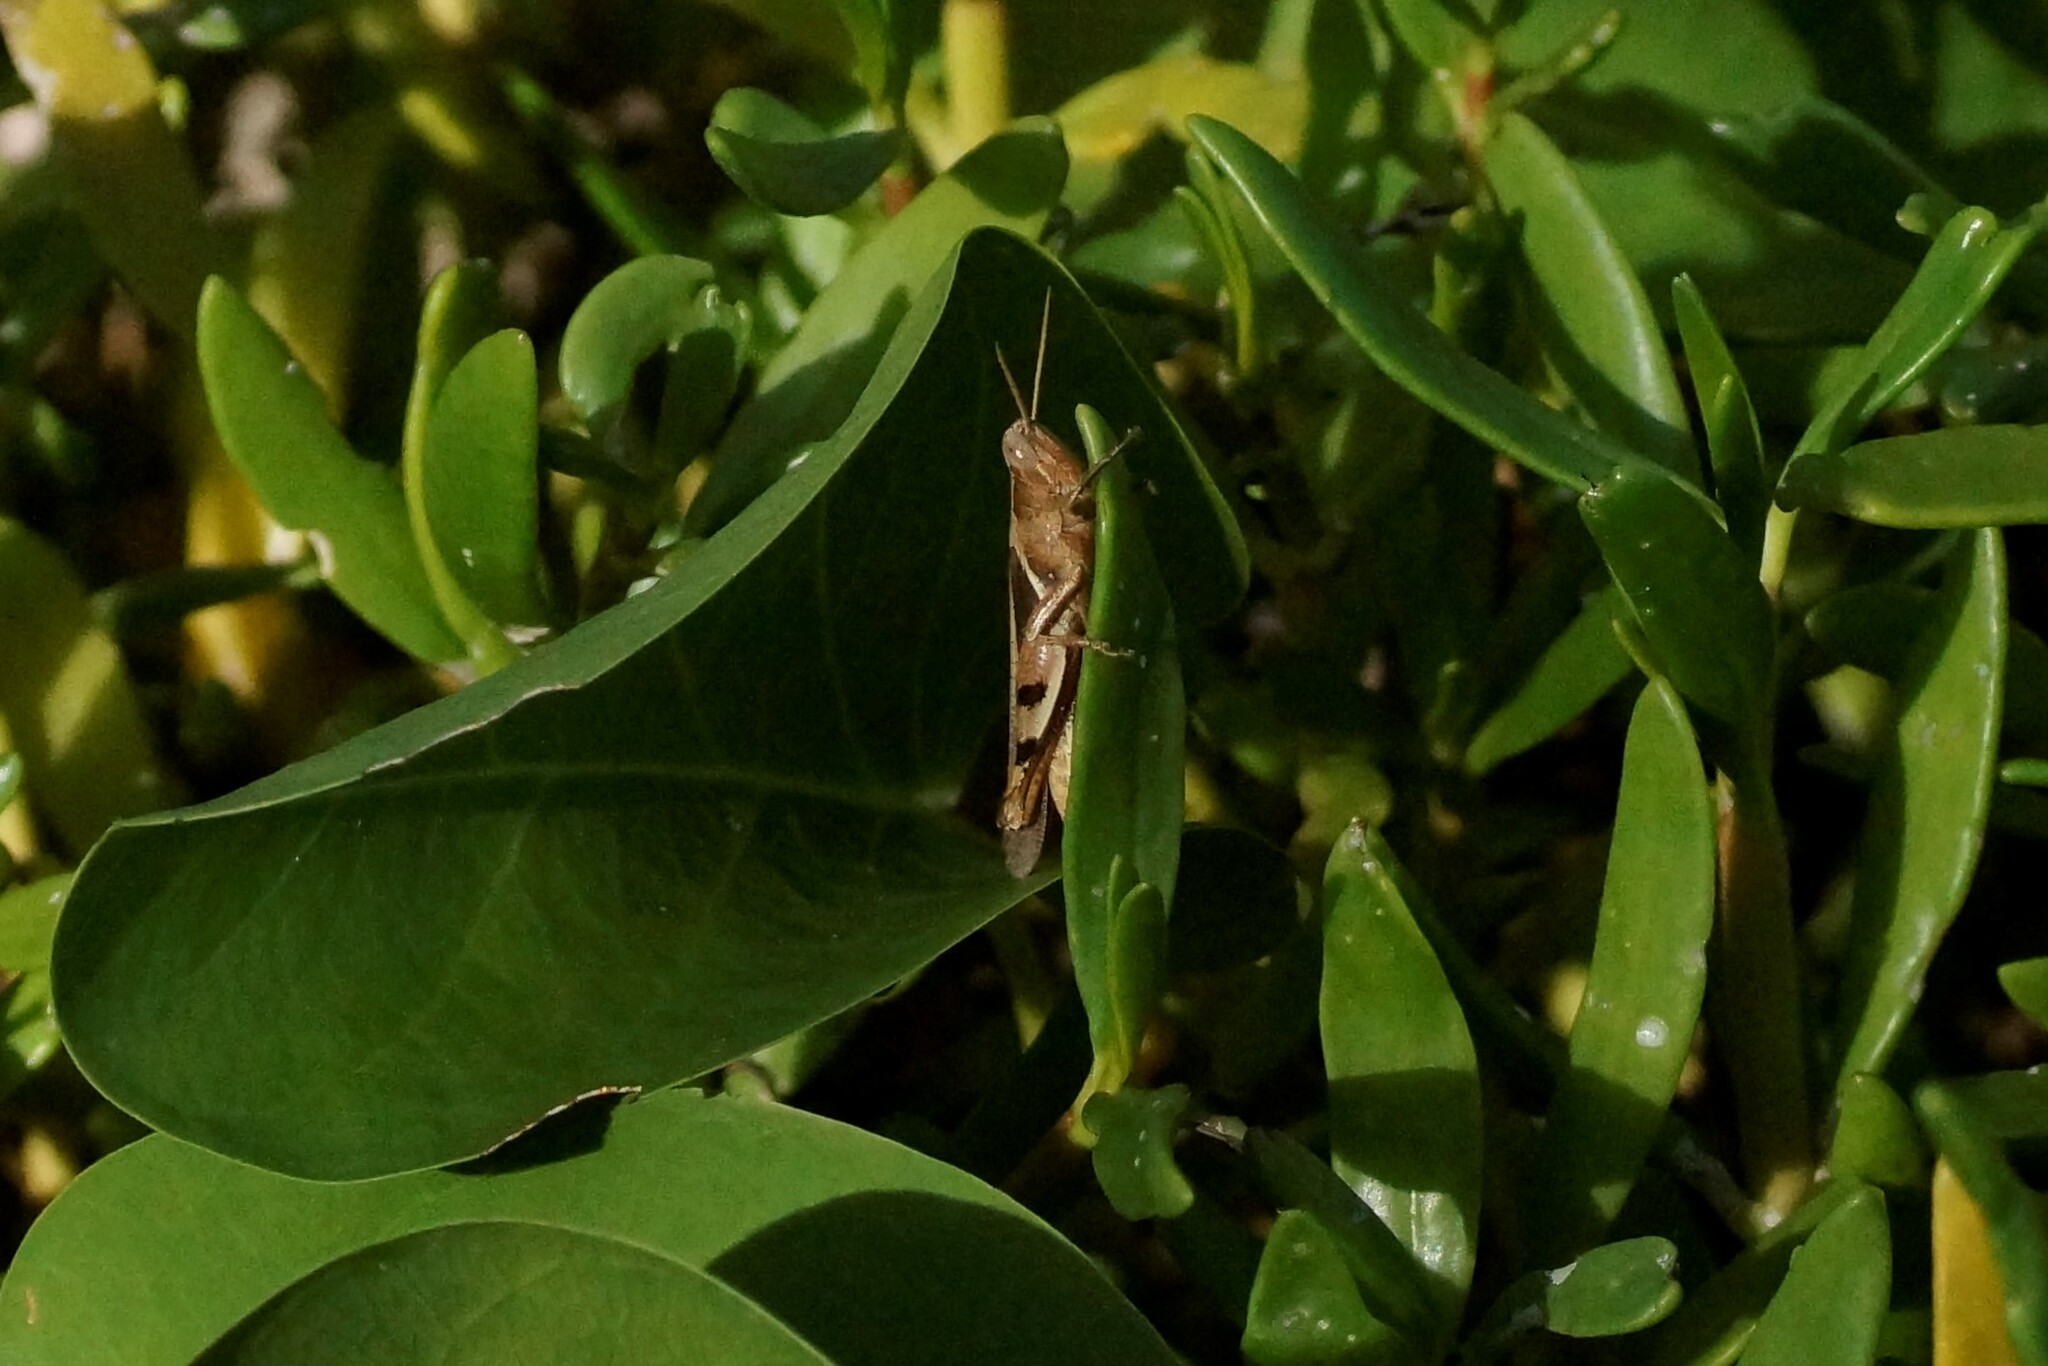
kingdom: Animalia
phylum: Arthropoda
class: Insecta
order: Orthoptera
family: Acrididae
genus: Stenocatantops
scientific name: Stenocatantops angustifrons
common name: Common tropical sharptail
